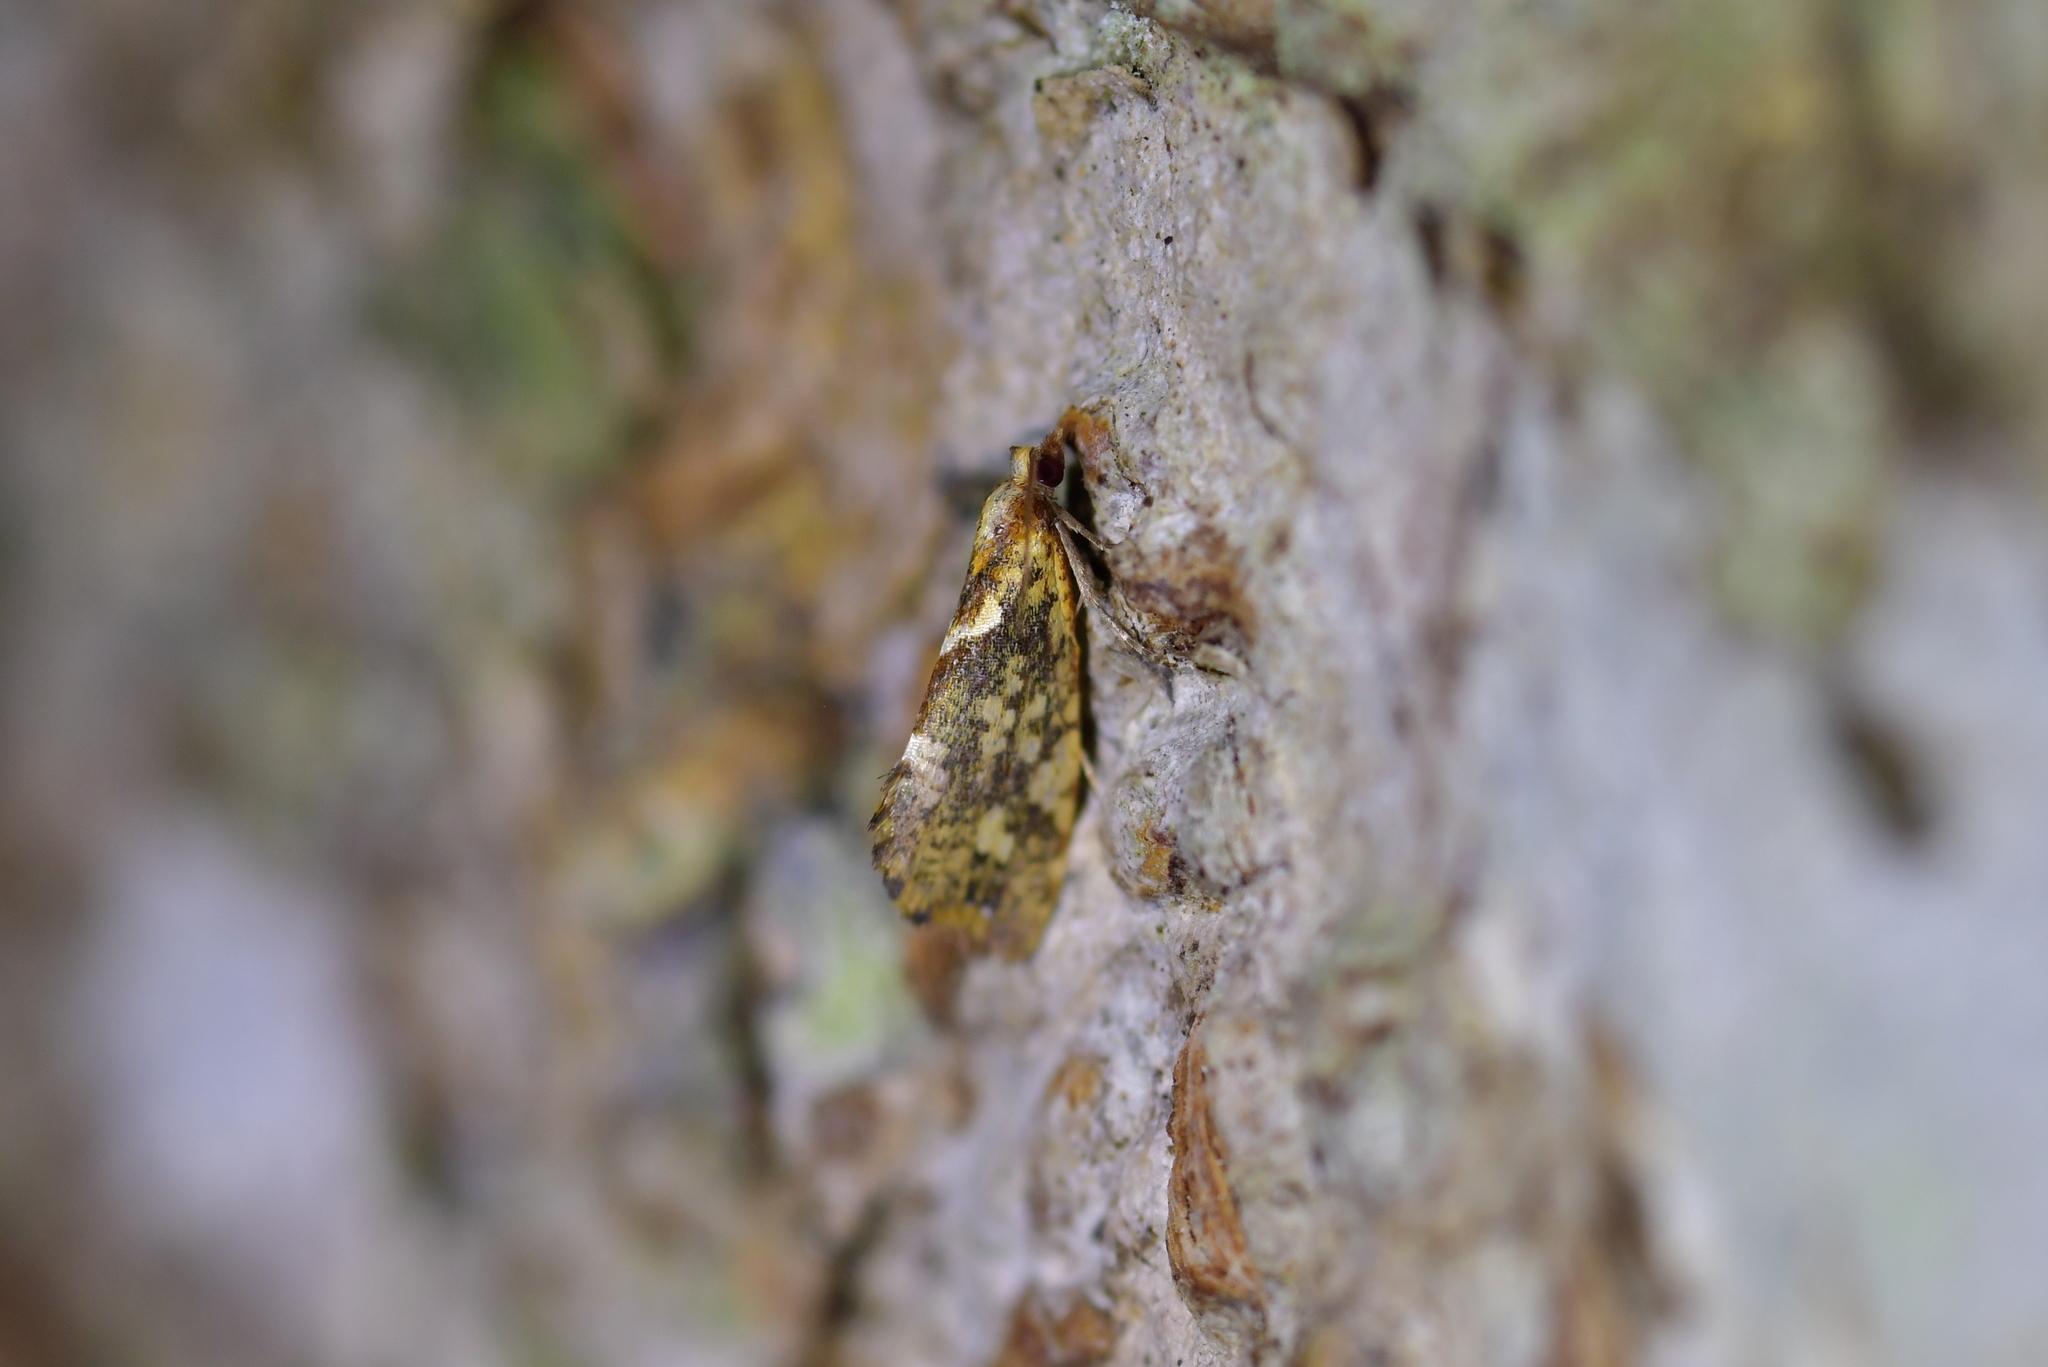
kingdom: Animalia
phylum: Arthropoda
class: Insecta
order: Lepidoptera
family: Tortricidae
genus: Pyrgotis
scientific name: Pyrgotis pyramidias
